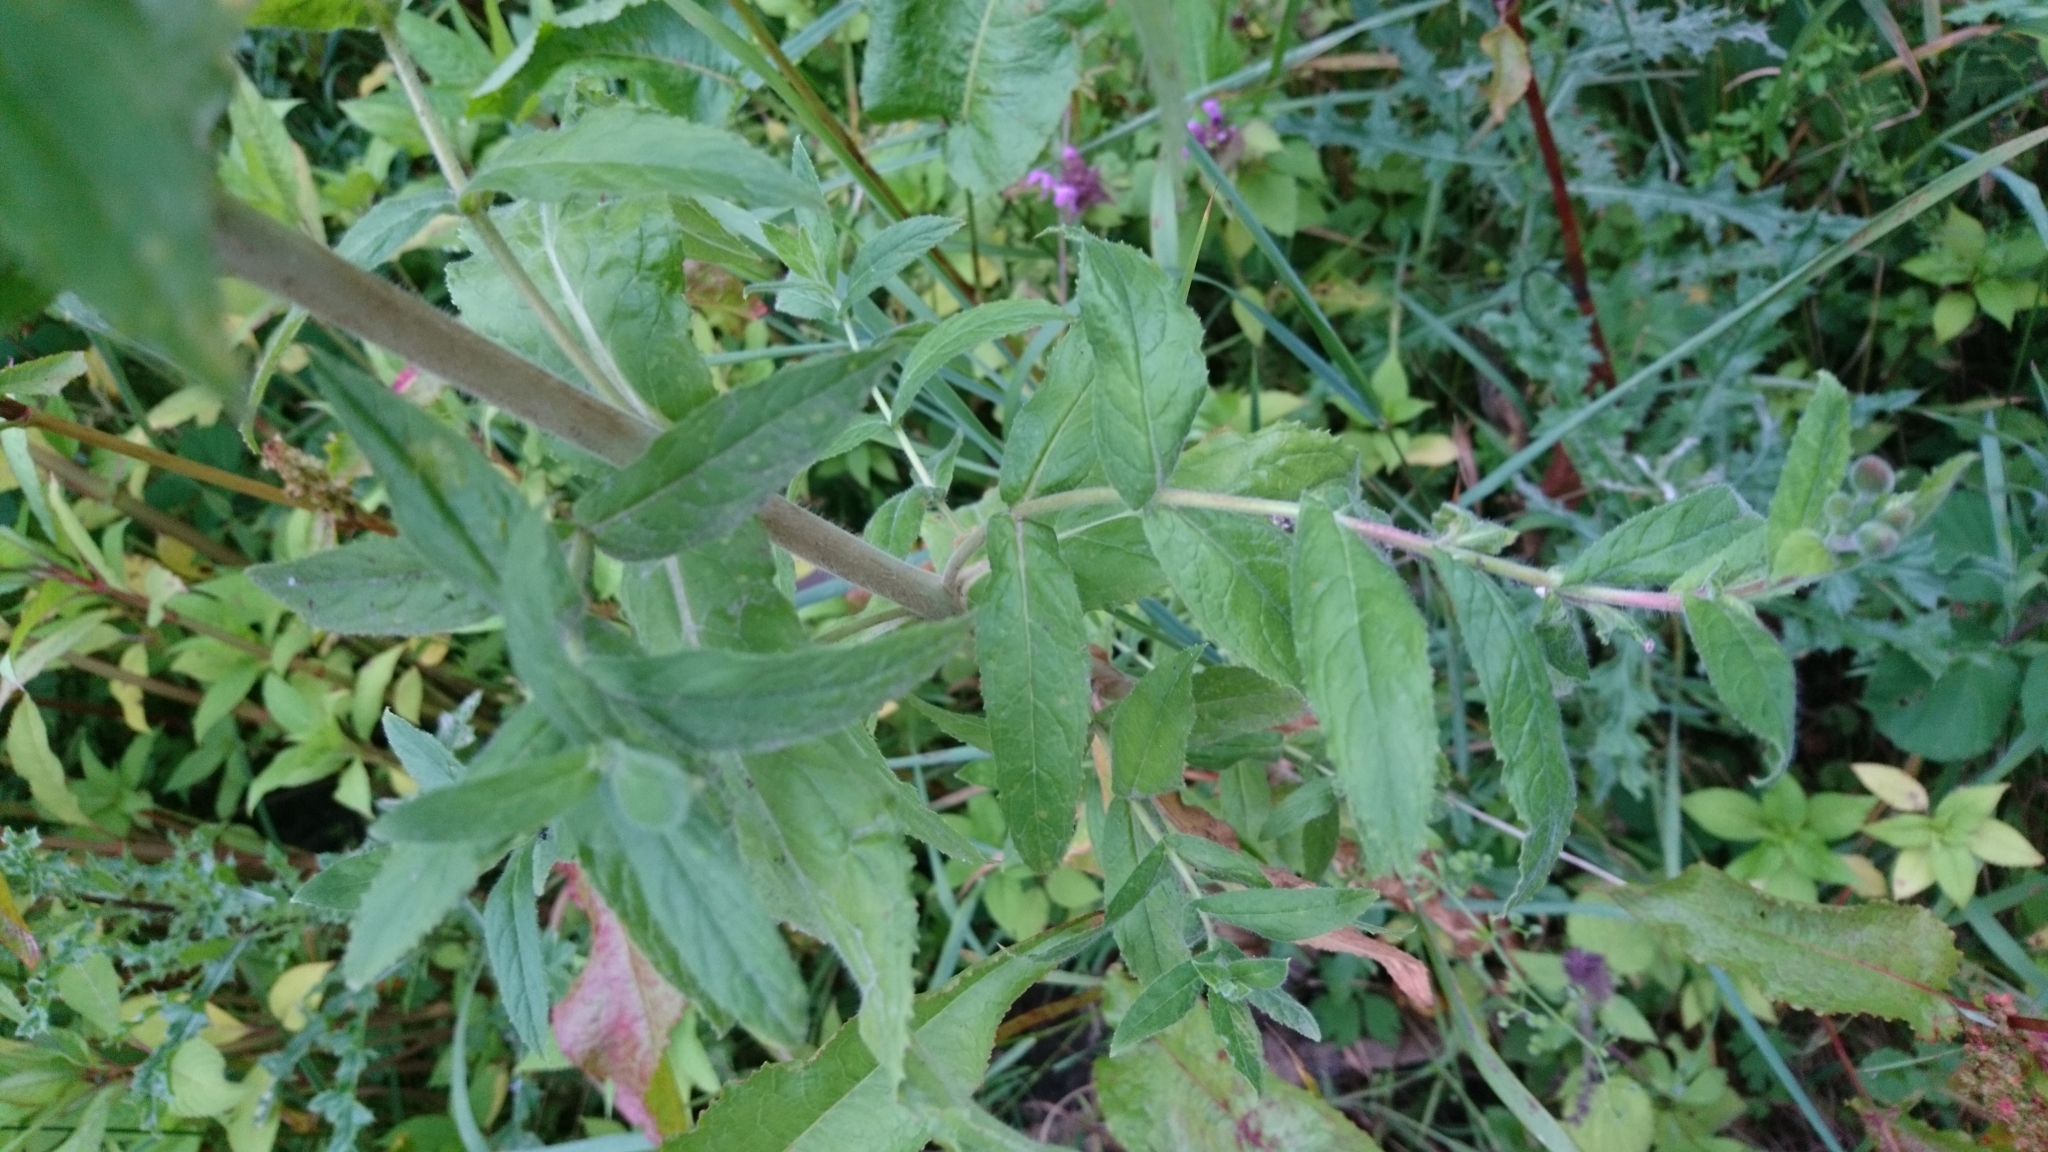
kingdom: Plantae
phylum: Tracheophyta
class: Magnoliopsida
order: Myrtales
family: Onagraceae
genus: Epilobium
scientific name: Epilobium hirsutum
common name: Great willowherb
